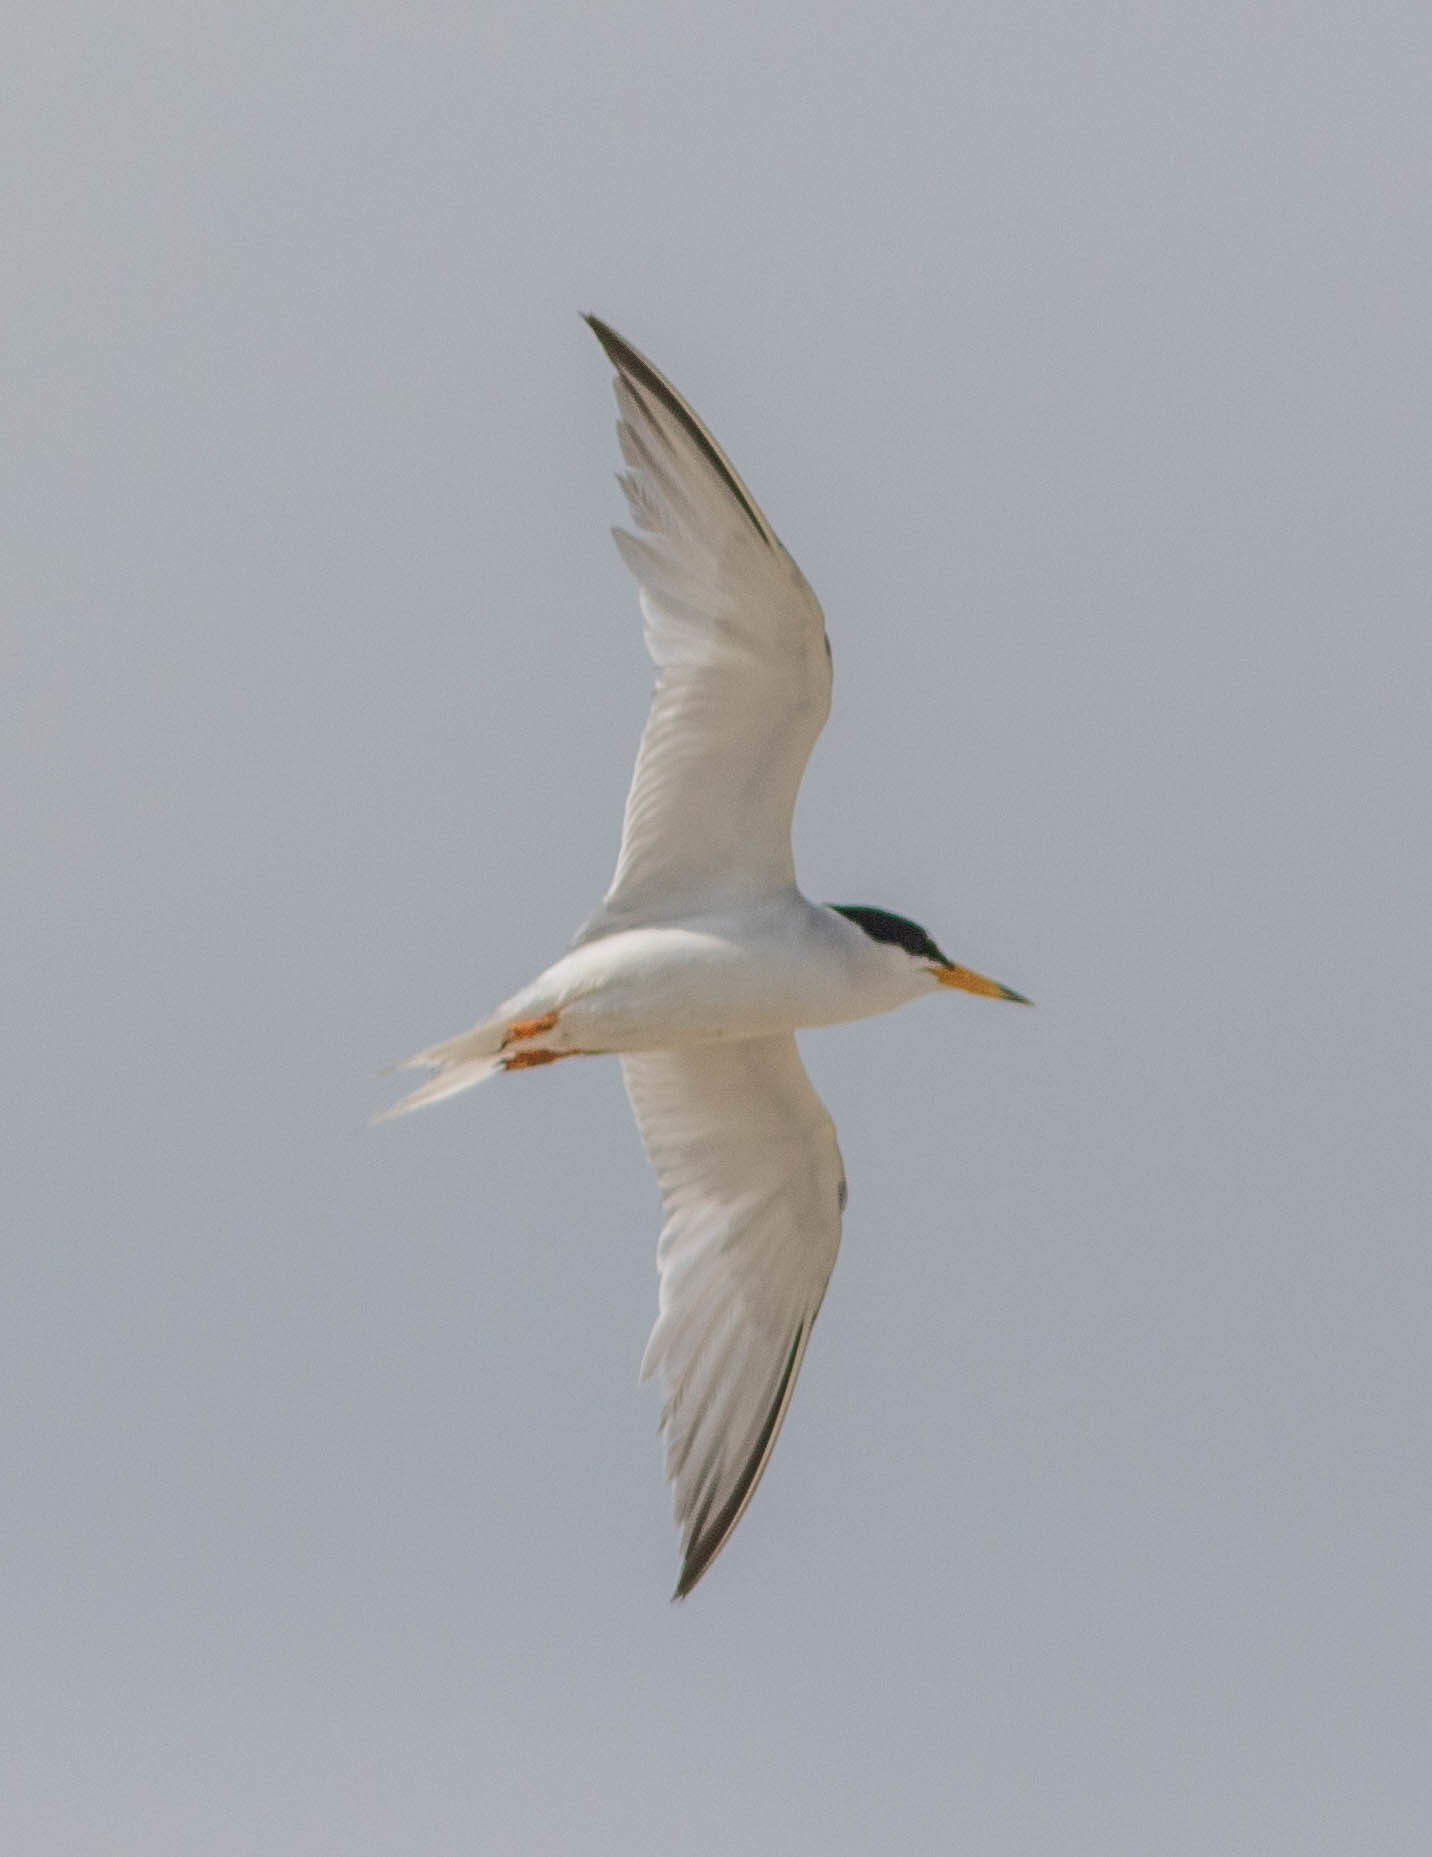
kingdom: Animalia
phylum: Chordata
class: Aves
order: Charadriiformes
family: Laridae
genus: Sternula
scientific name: Sternula antillarum
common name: Least tern
